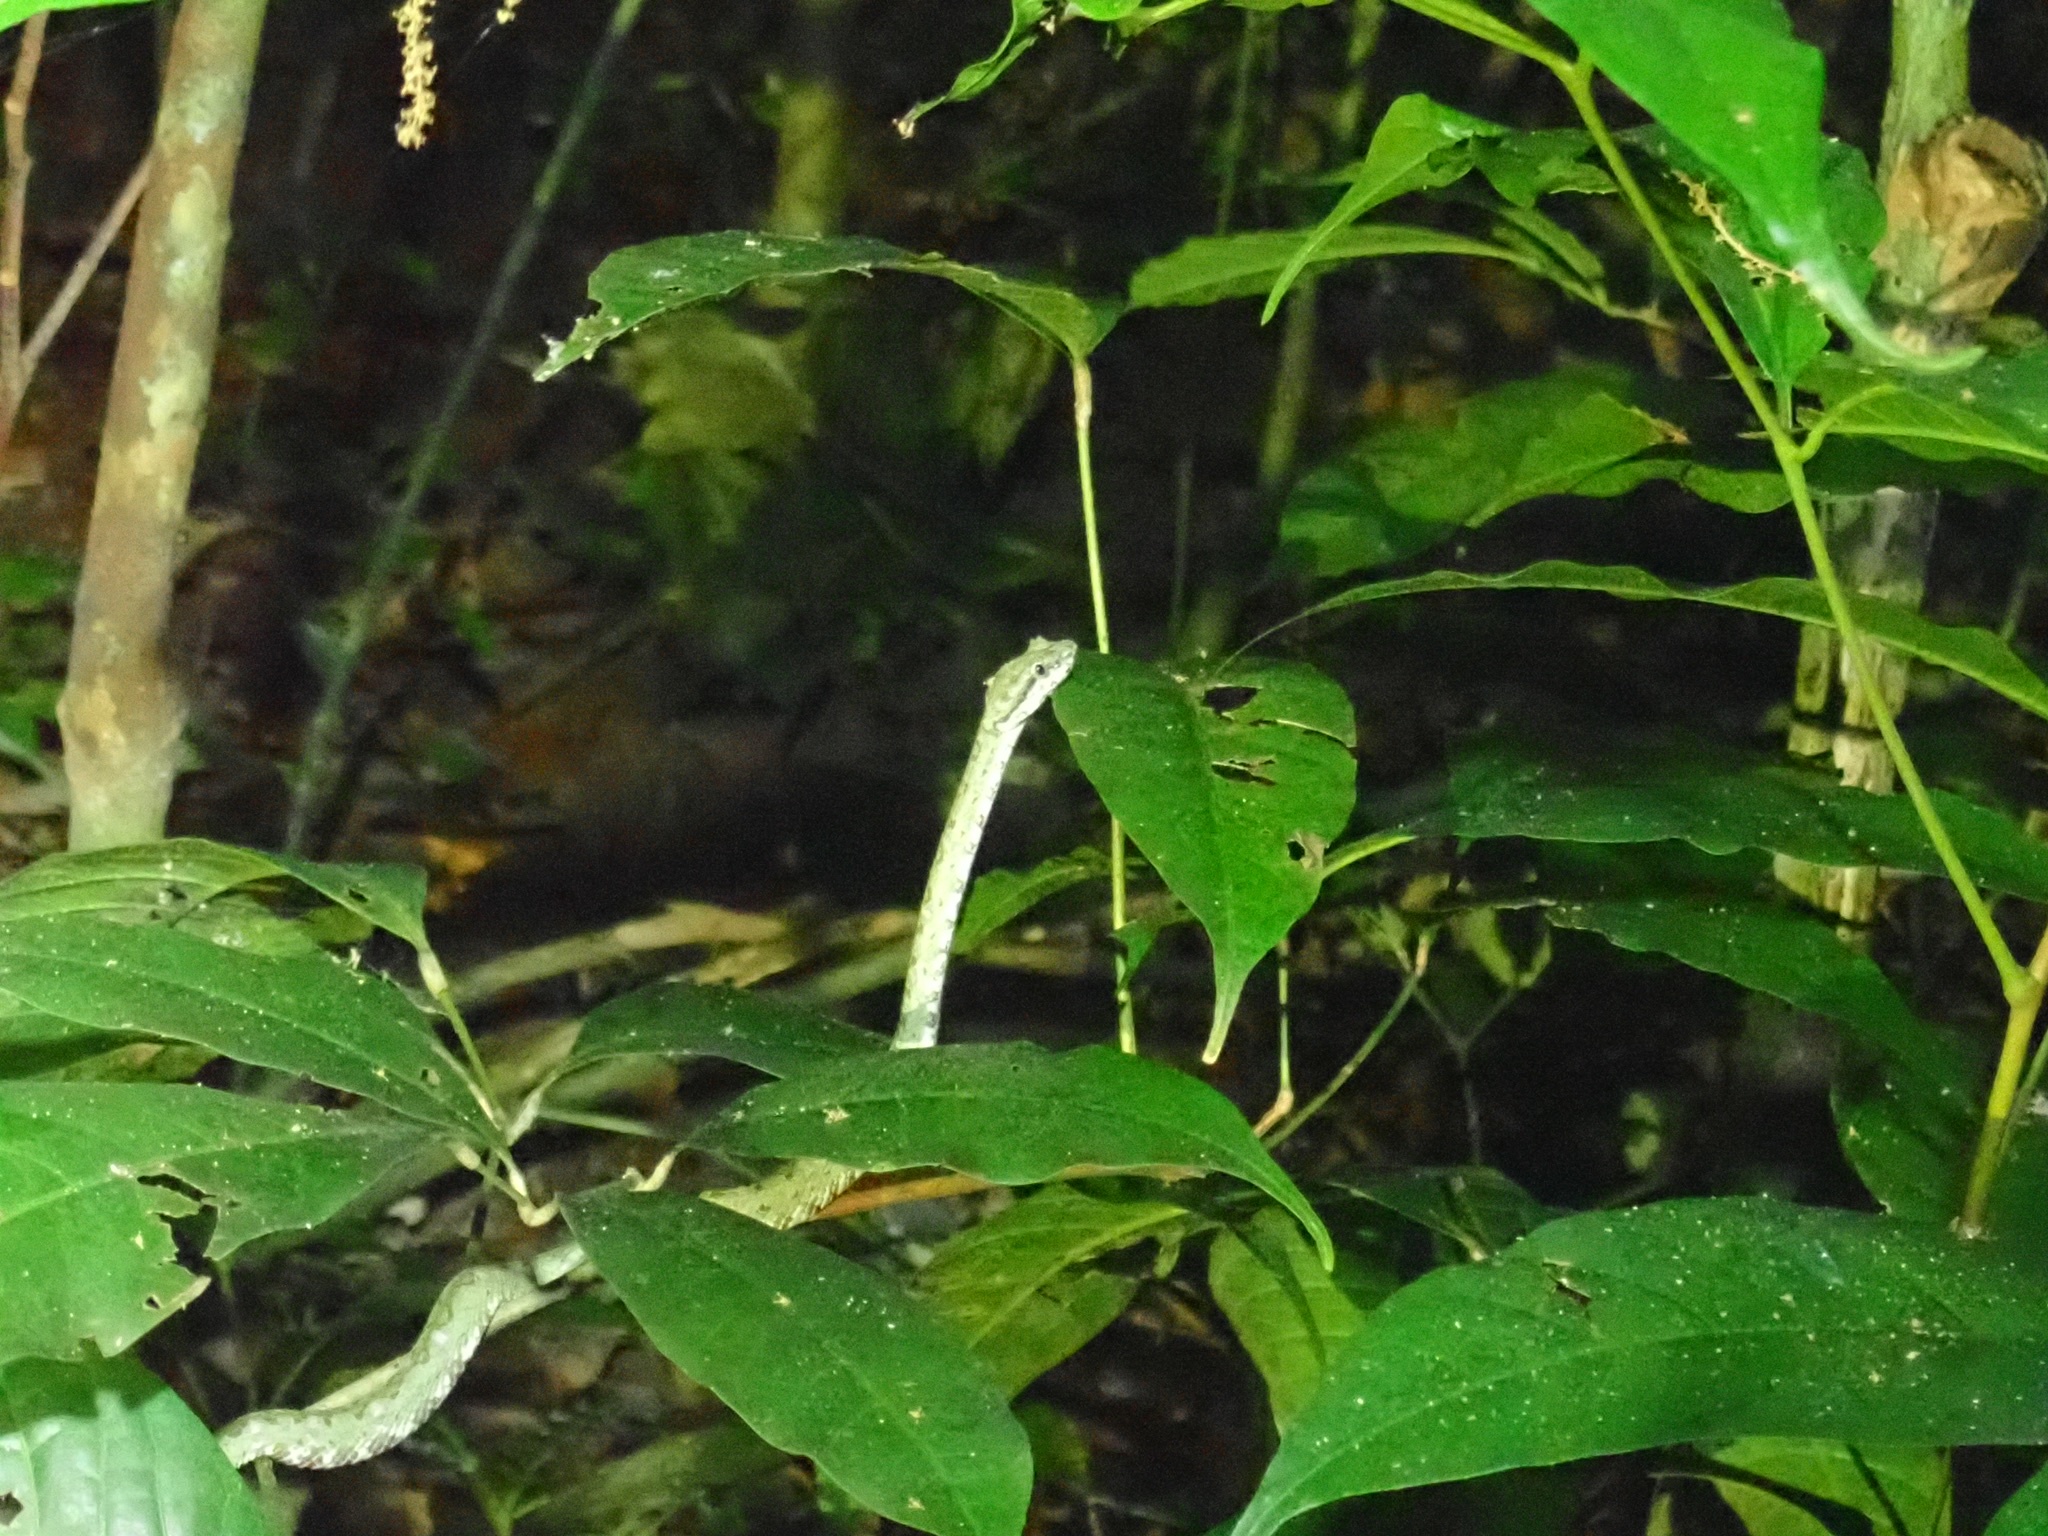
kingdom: Animalia
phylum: Chordata
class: Squamata
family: Viperidae
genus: Bothriechis
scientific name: Bothriechis schlegelii
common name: Eyelash viper
